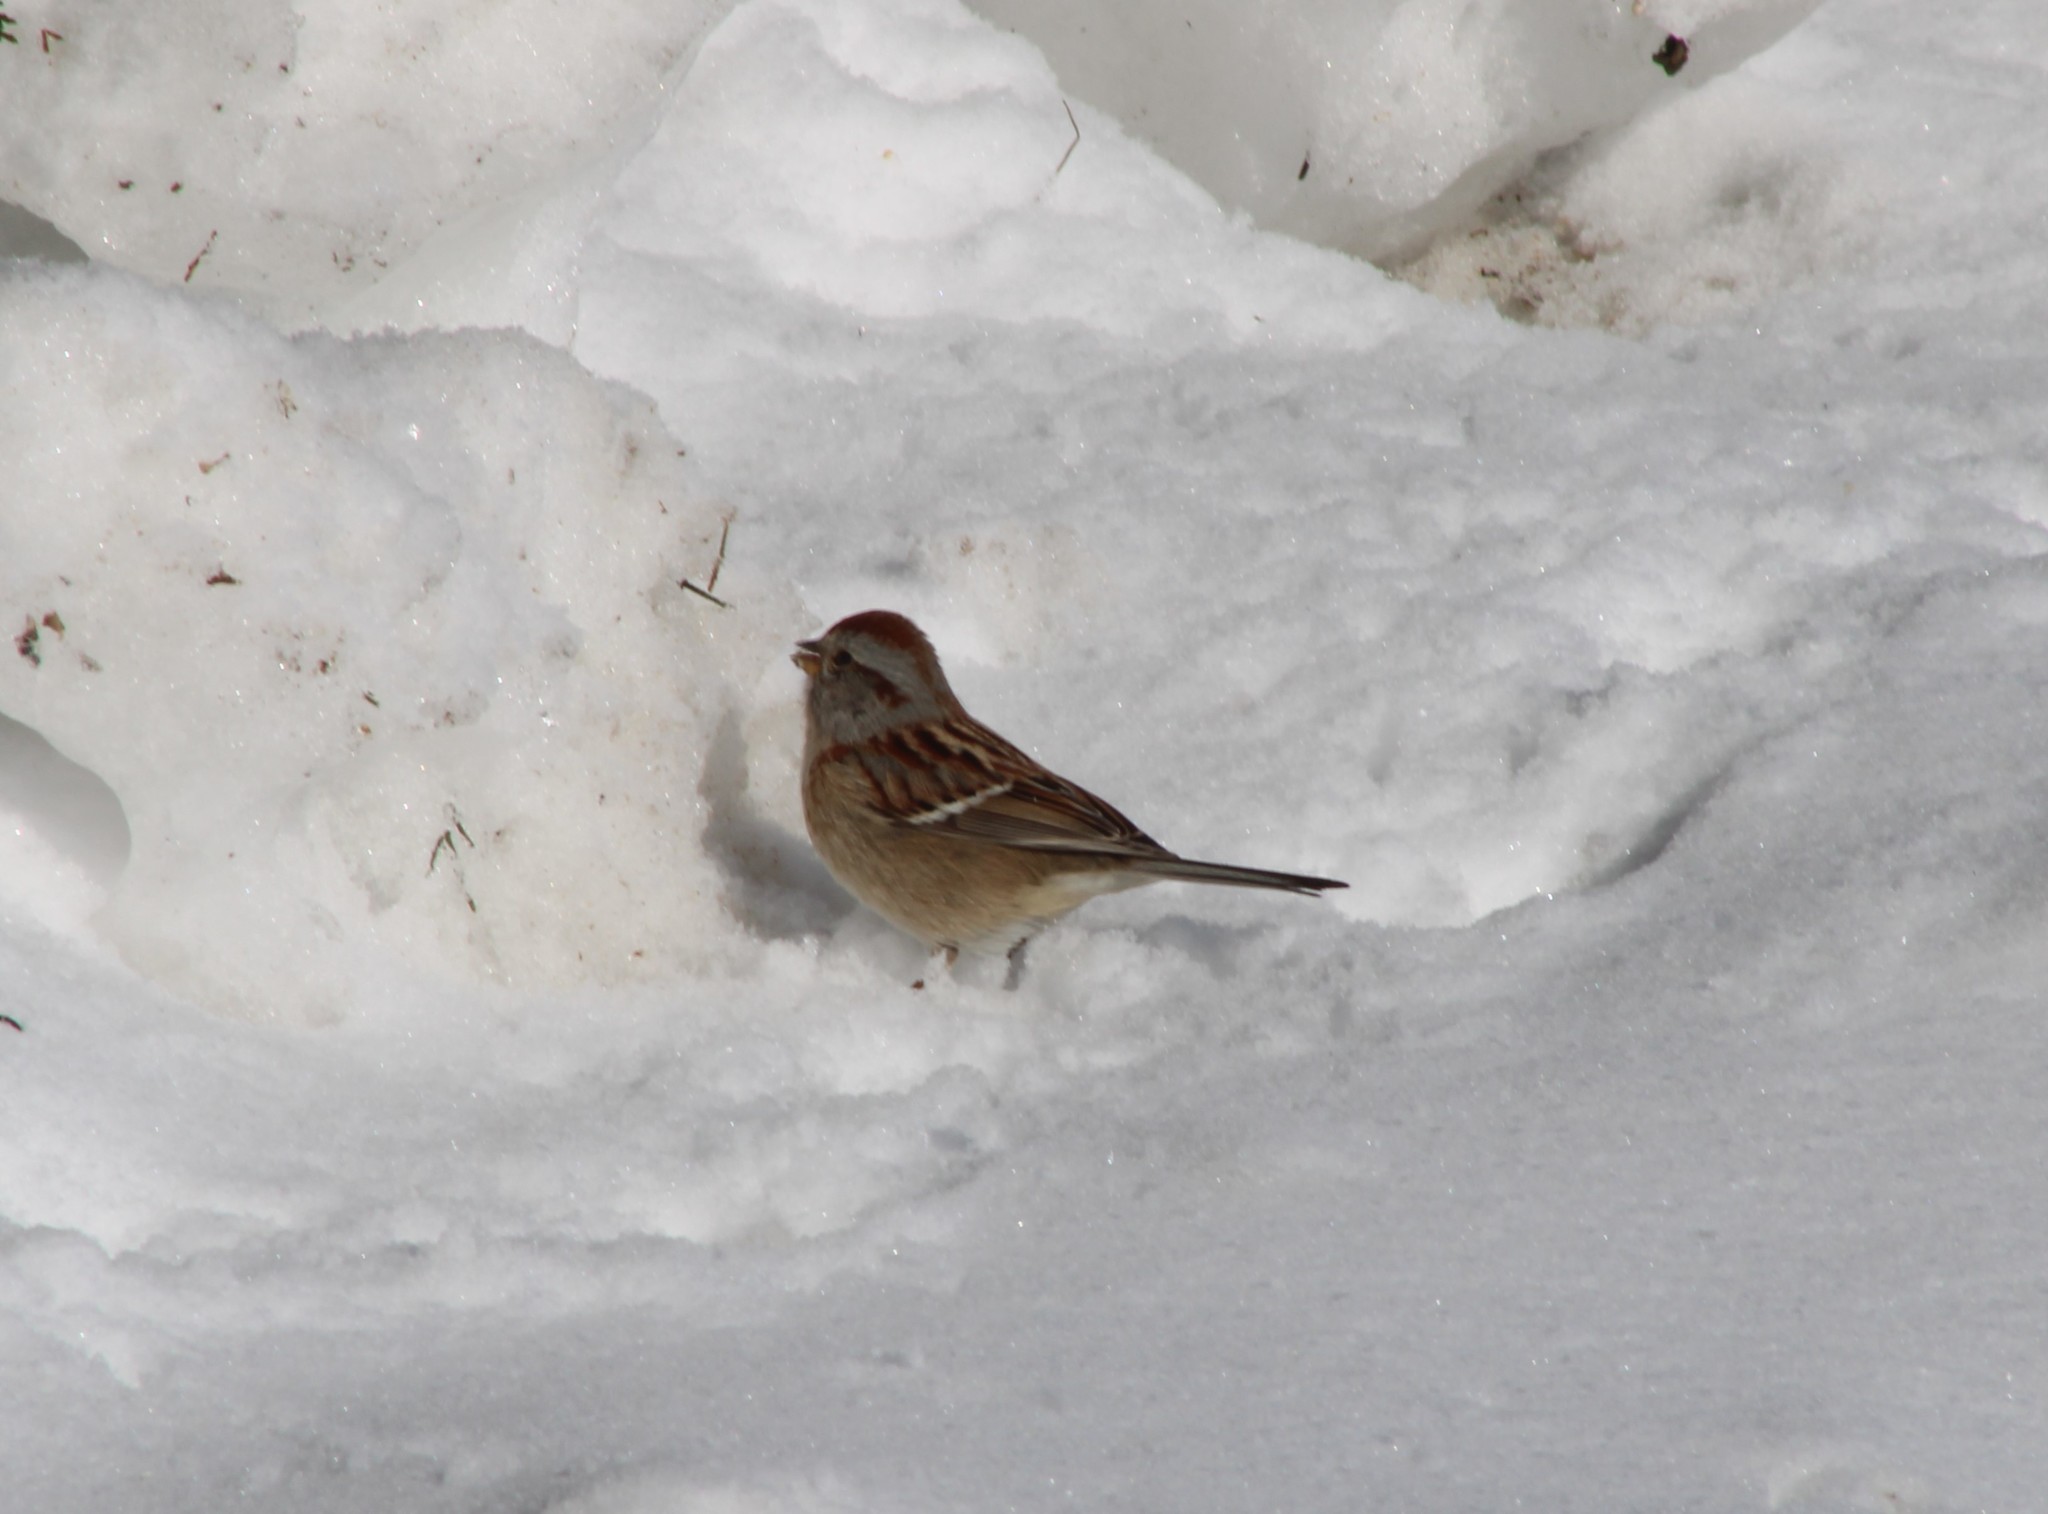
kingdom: Animalia
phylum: Chordata
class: Aves
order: Passeriformes
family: Passerellidae
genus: Spizelloides
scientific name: Spizelloides arborea
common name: American tree sparrow
